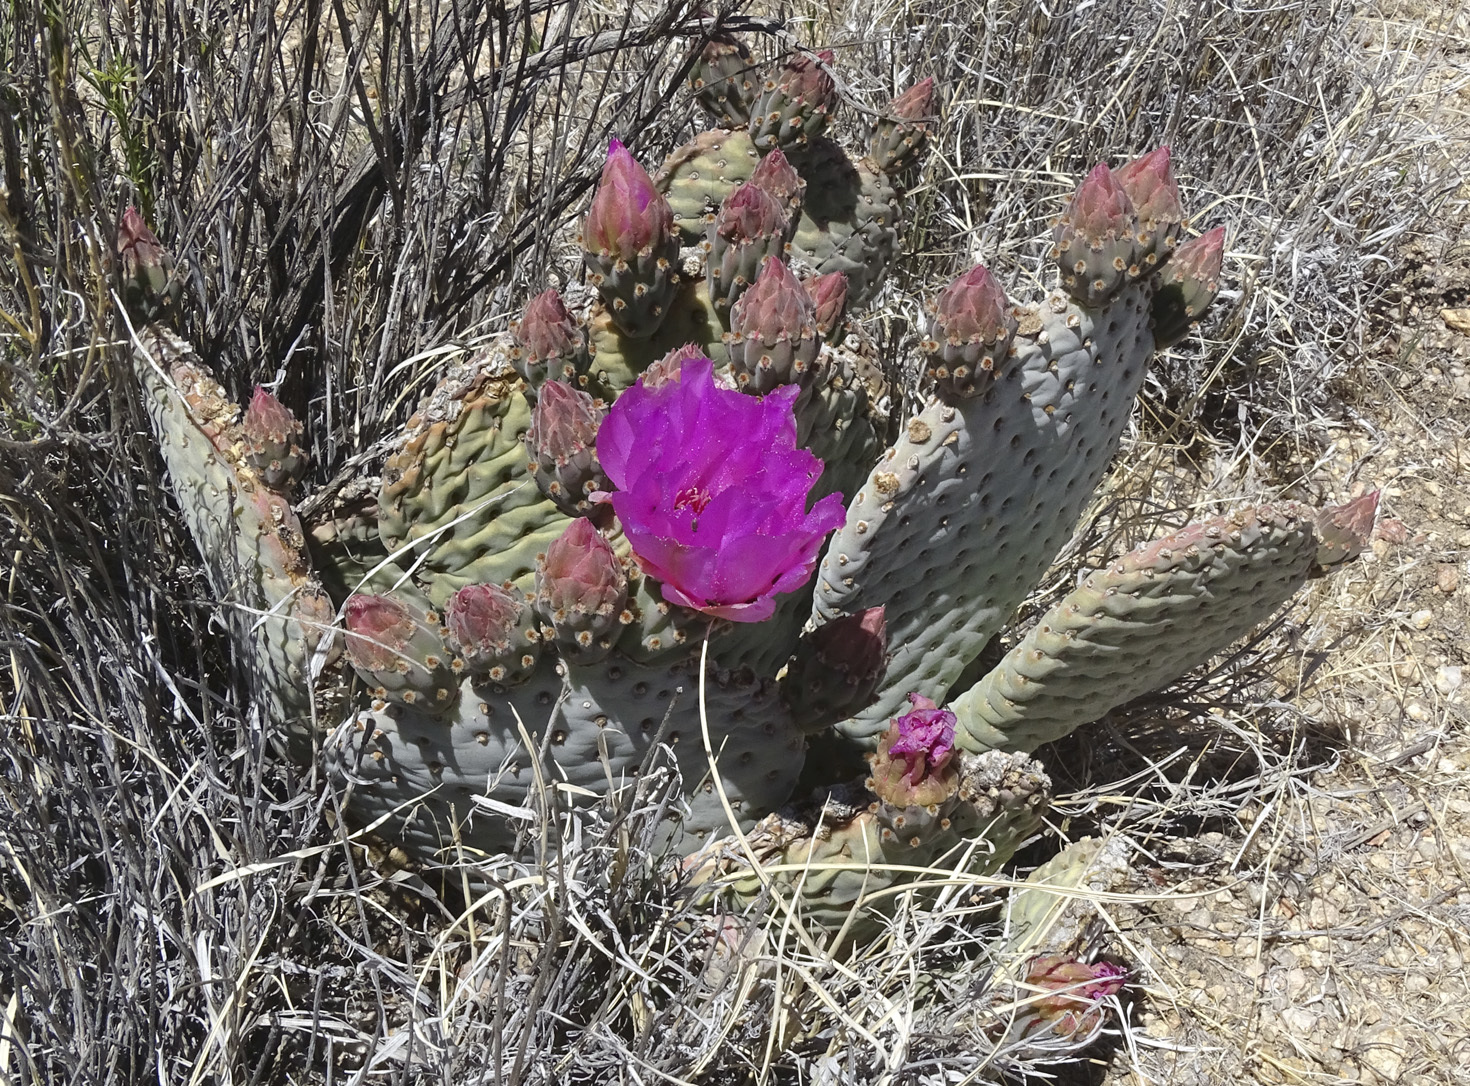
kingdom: Plantae
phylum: Tracheophyta
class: Magnoliopsida
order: Caryophyllales
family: Cactaceae
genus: Opuntia
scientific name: Opuntia basilaris
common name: Beavertail prickly-pear
